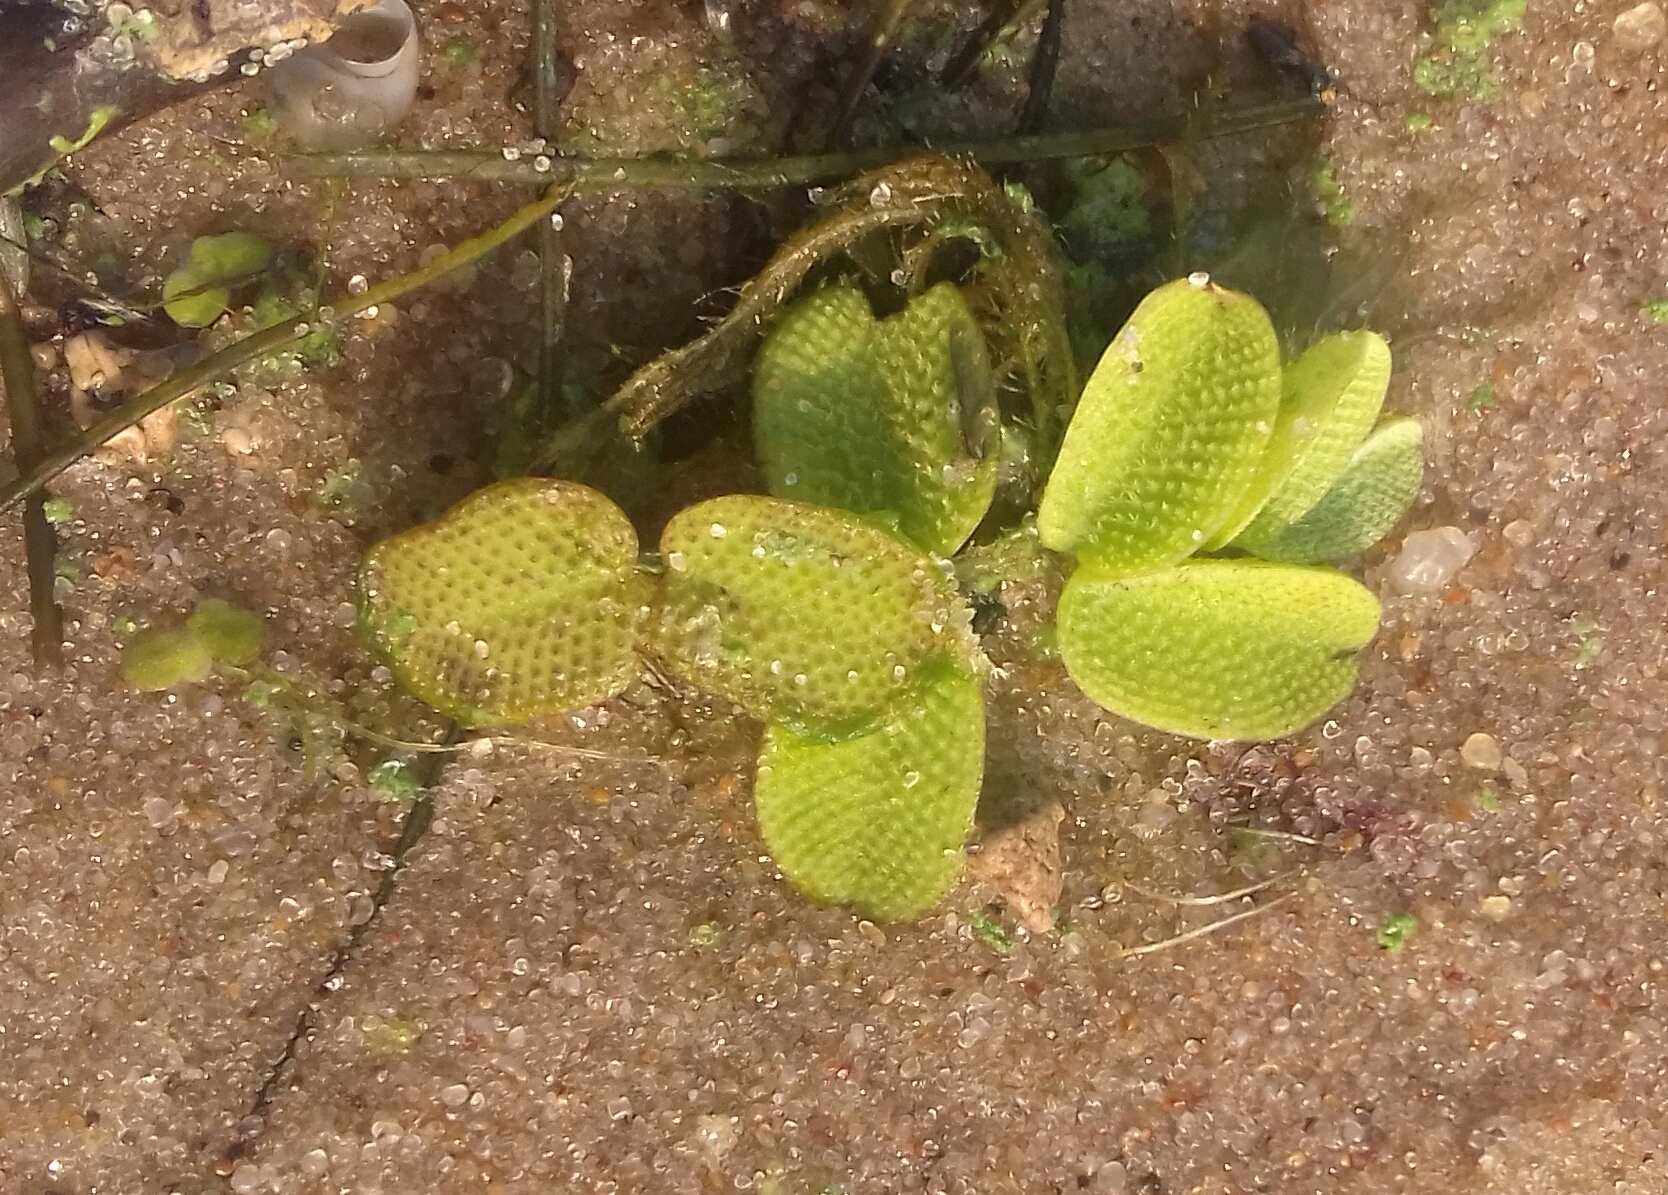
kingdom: Plantae
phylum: Tracheophyta
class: Polypodiopsida
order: Salviniales
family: Salviniaceae
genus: Salvinia
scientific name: Salvinia natans
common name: Floating fern
